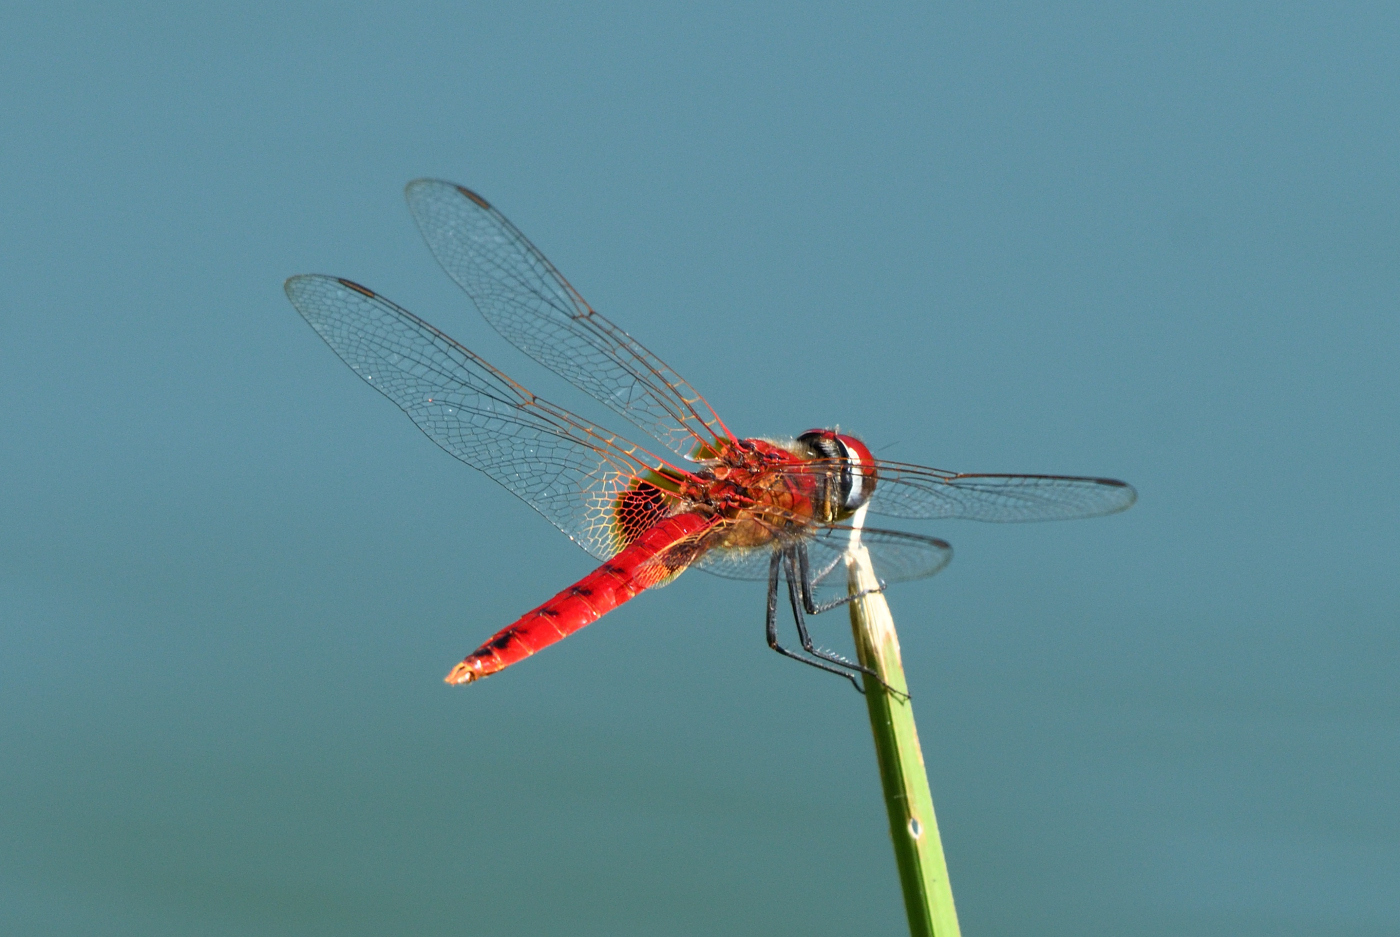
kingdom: Animalia
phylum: Arthropoda
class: Insecta
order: Odonata
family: Libellulidae
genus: Urothemis
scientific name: Urothemis signata
